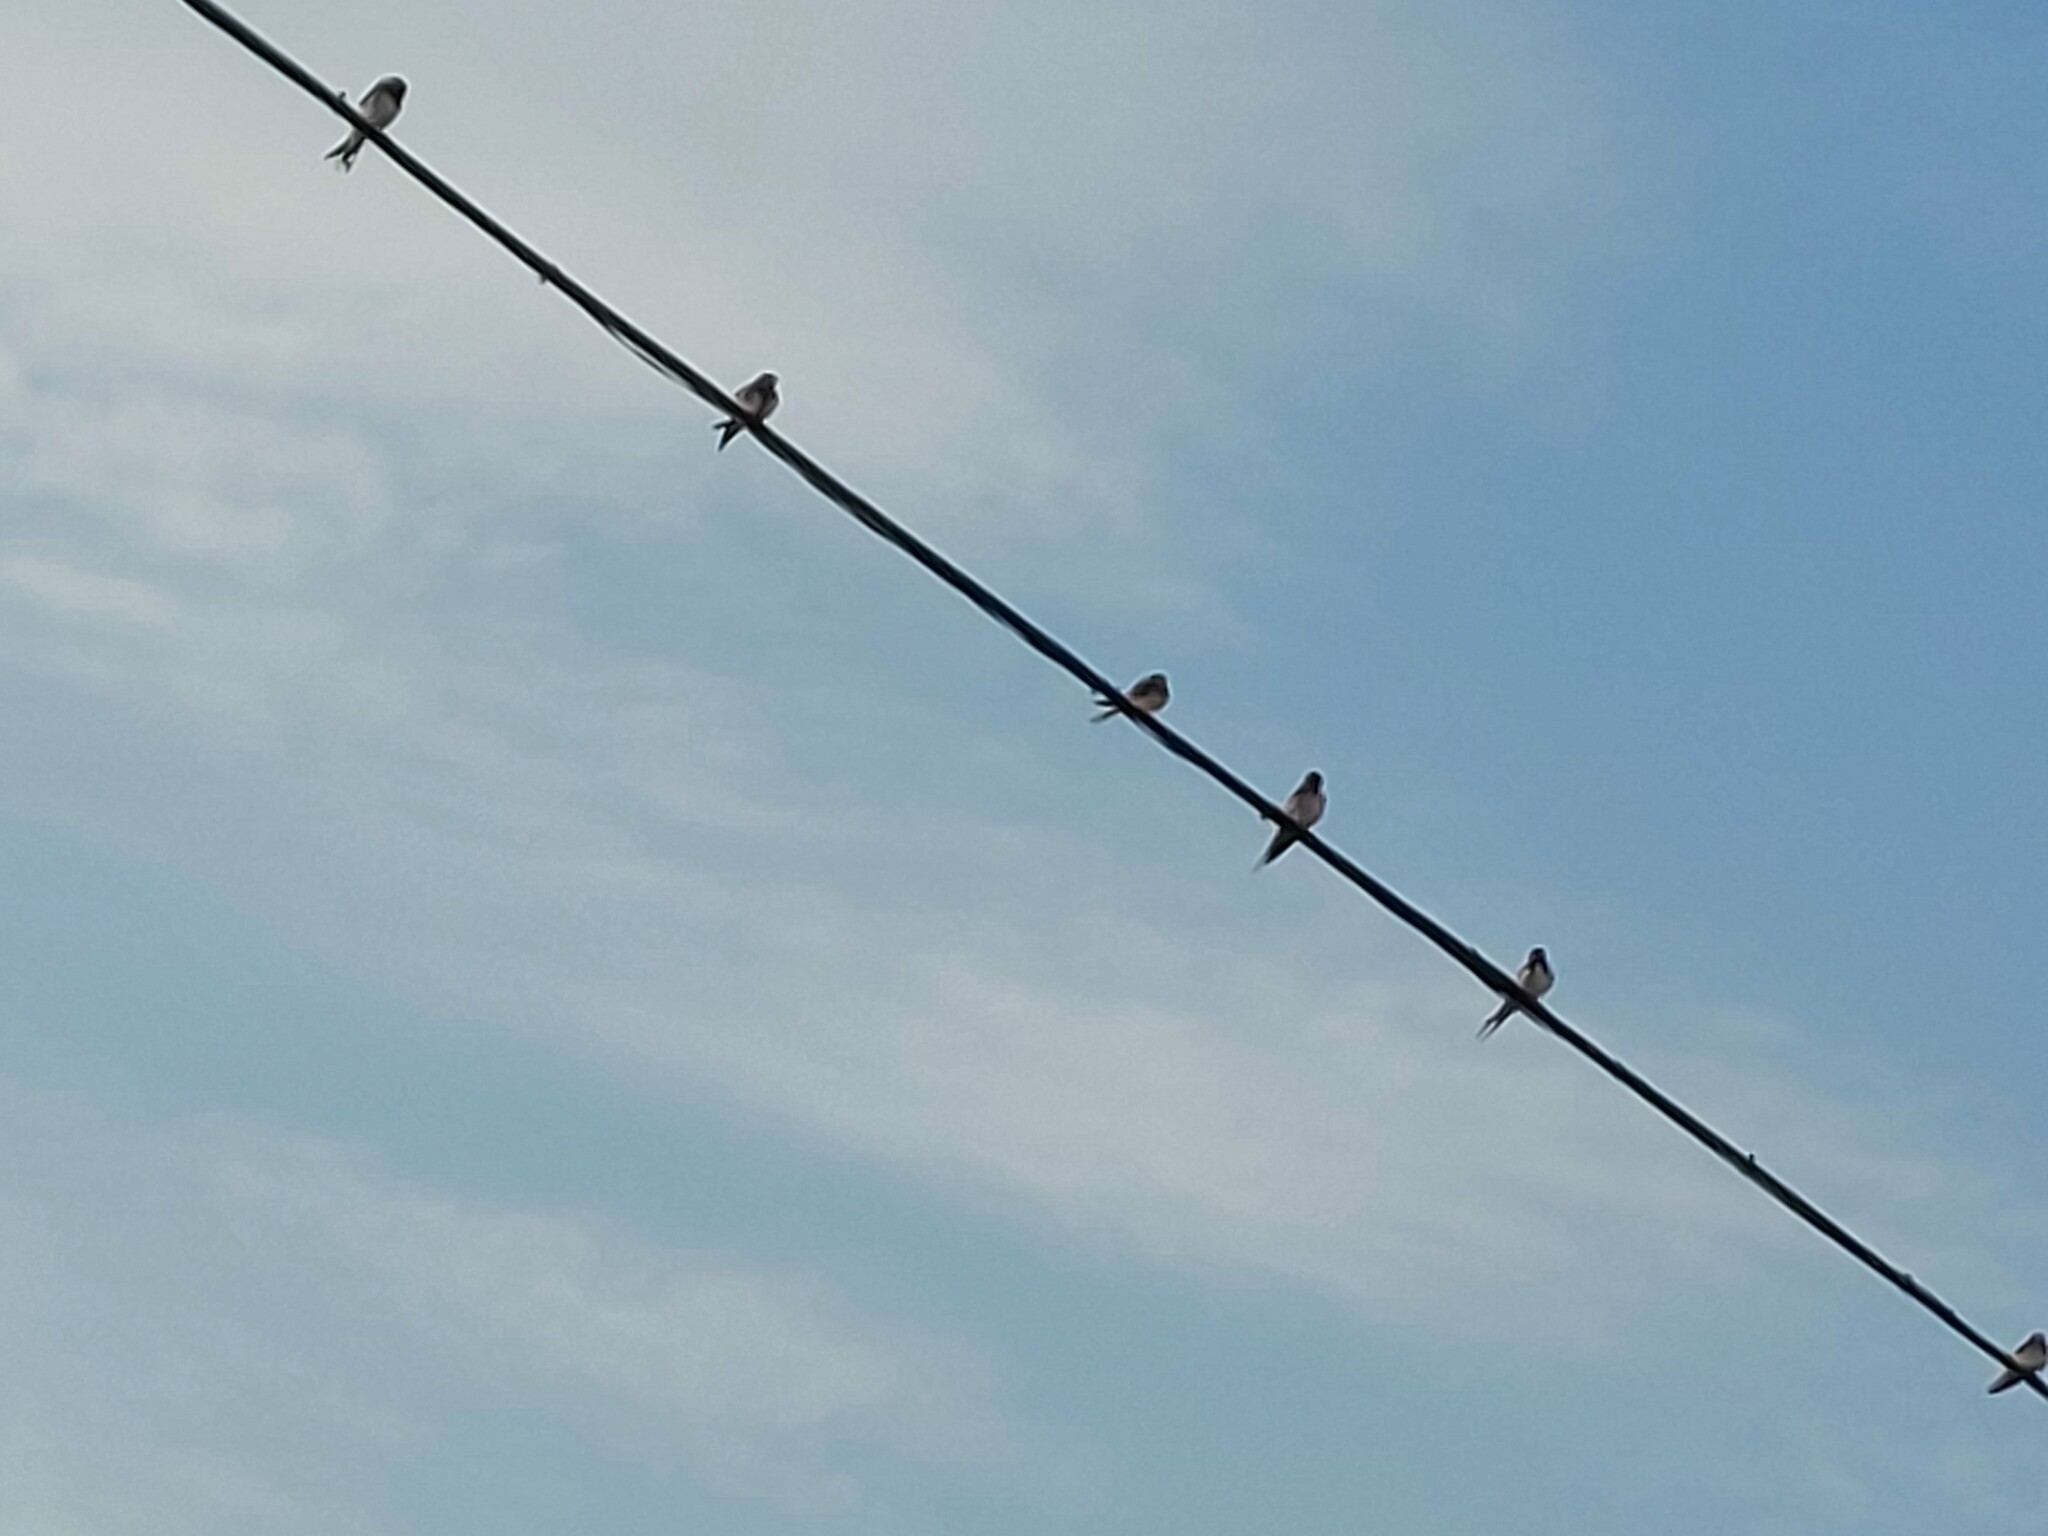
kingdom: Animalia
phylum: Chordata
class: Aves
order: Passeriformes
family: Hirundinidae
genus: Hirundo
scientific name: Hirundo rustica
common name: Barn swallow
